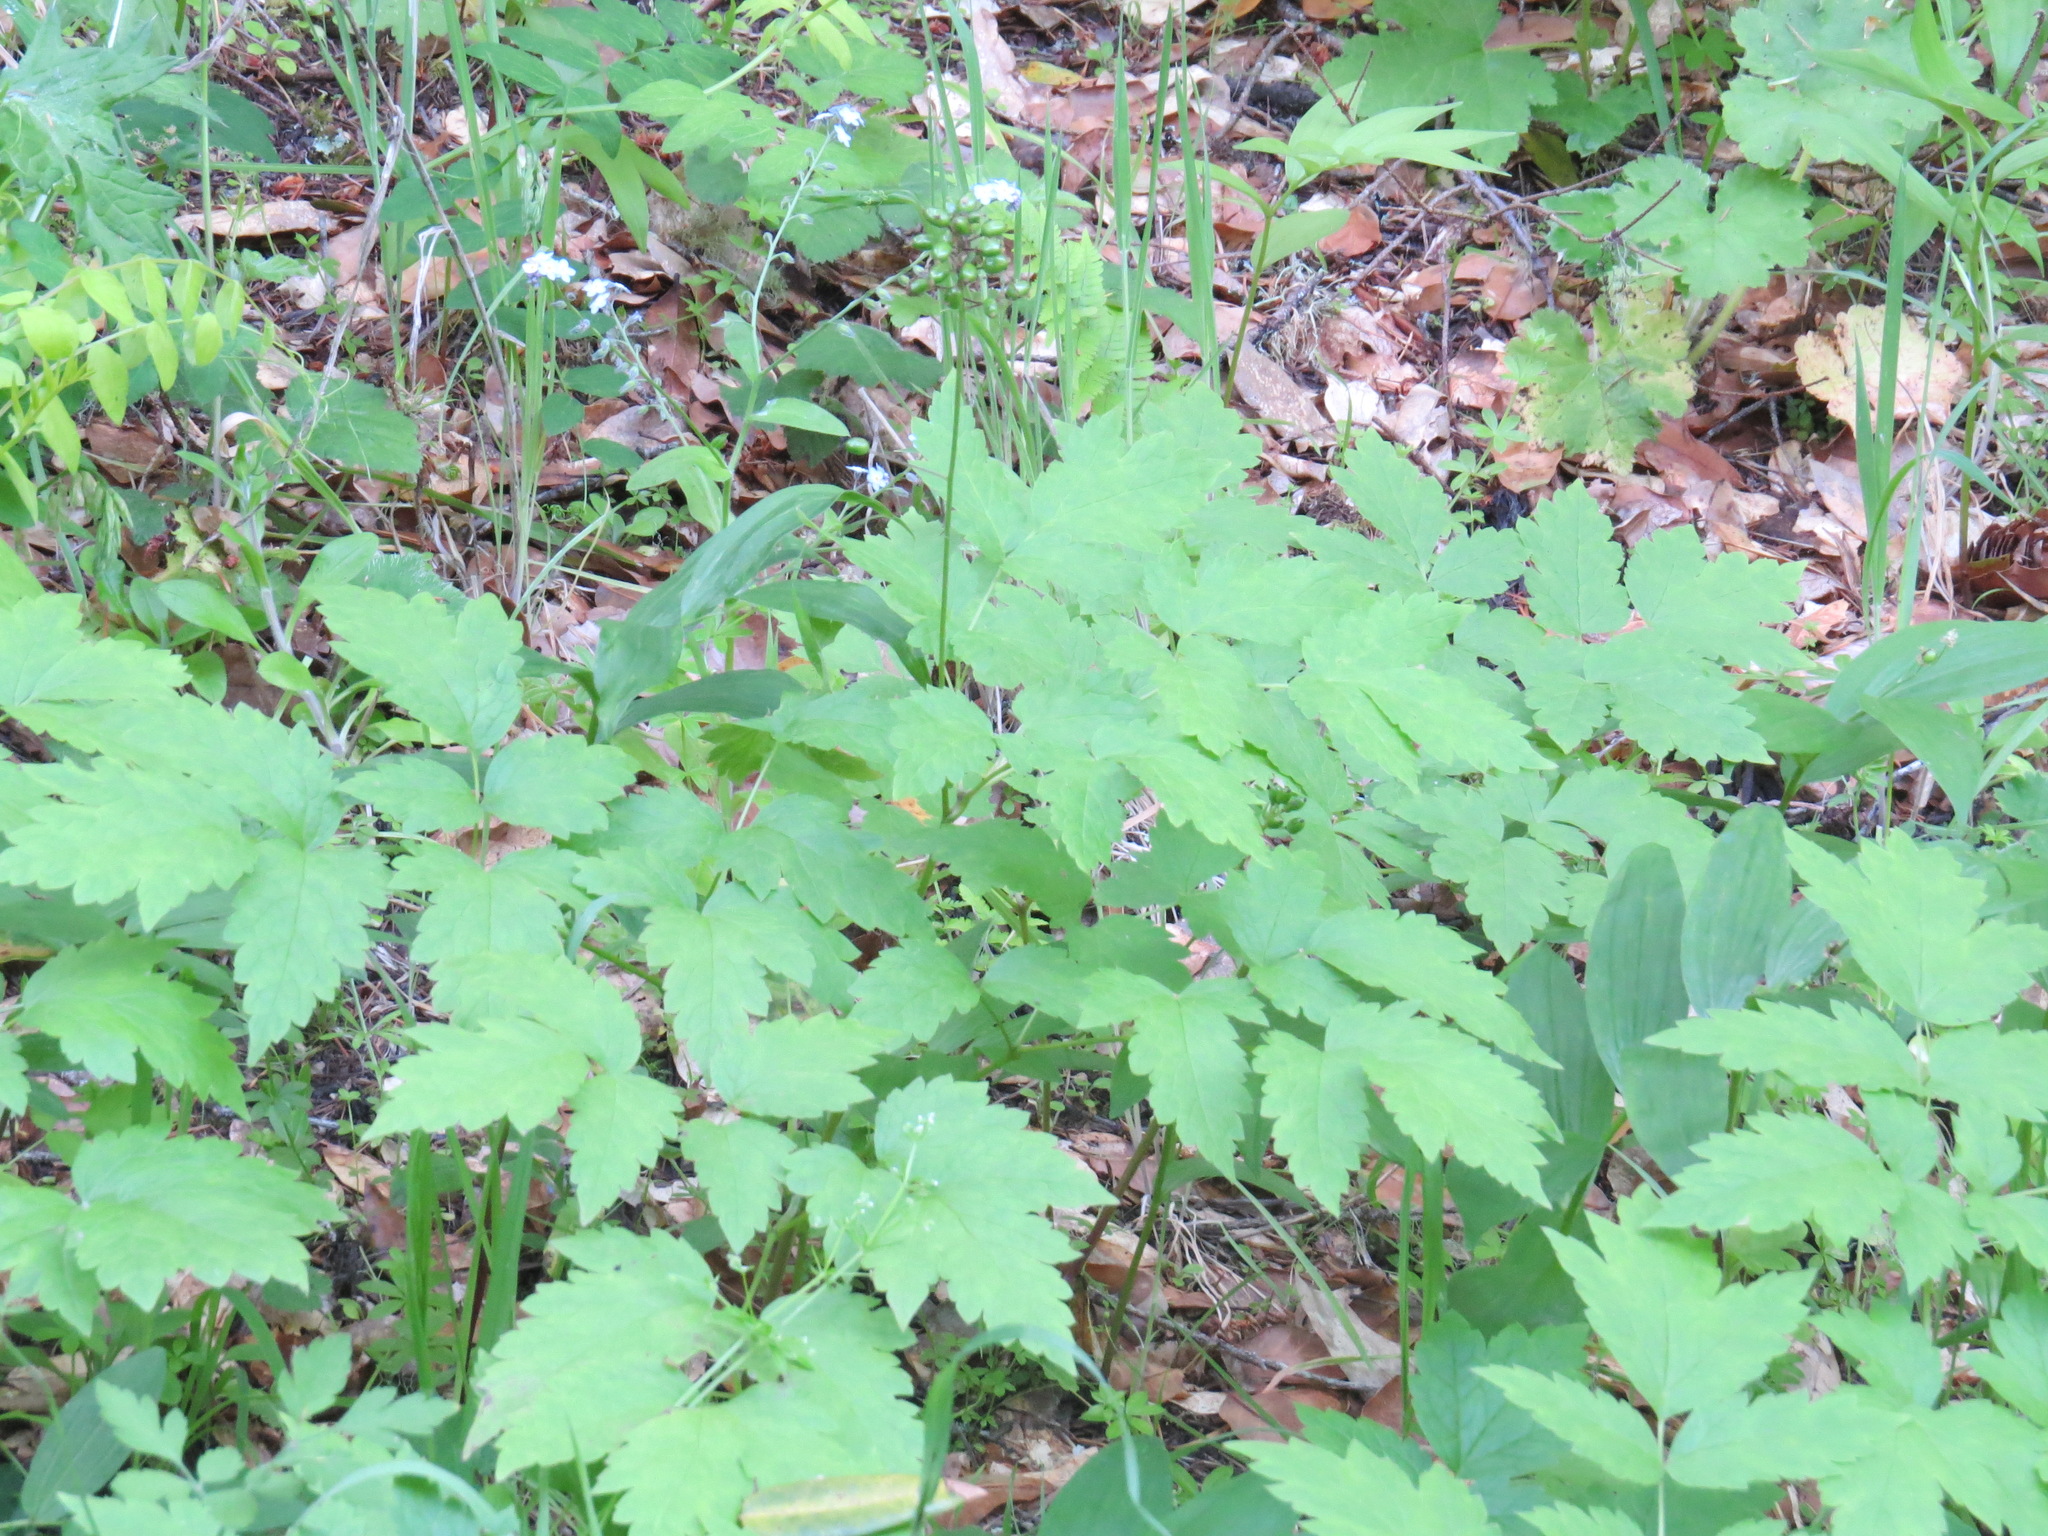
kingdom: Plantae
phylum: Tracheophyta
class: Magnoliopsida
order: Ranunculales
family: Ranunculaceae
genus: Actaea
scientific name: Actaea rubra
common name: Red baneberry
